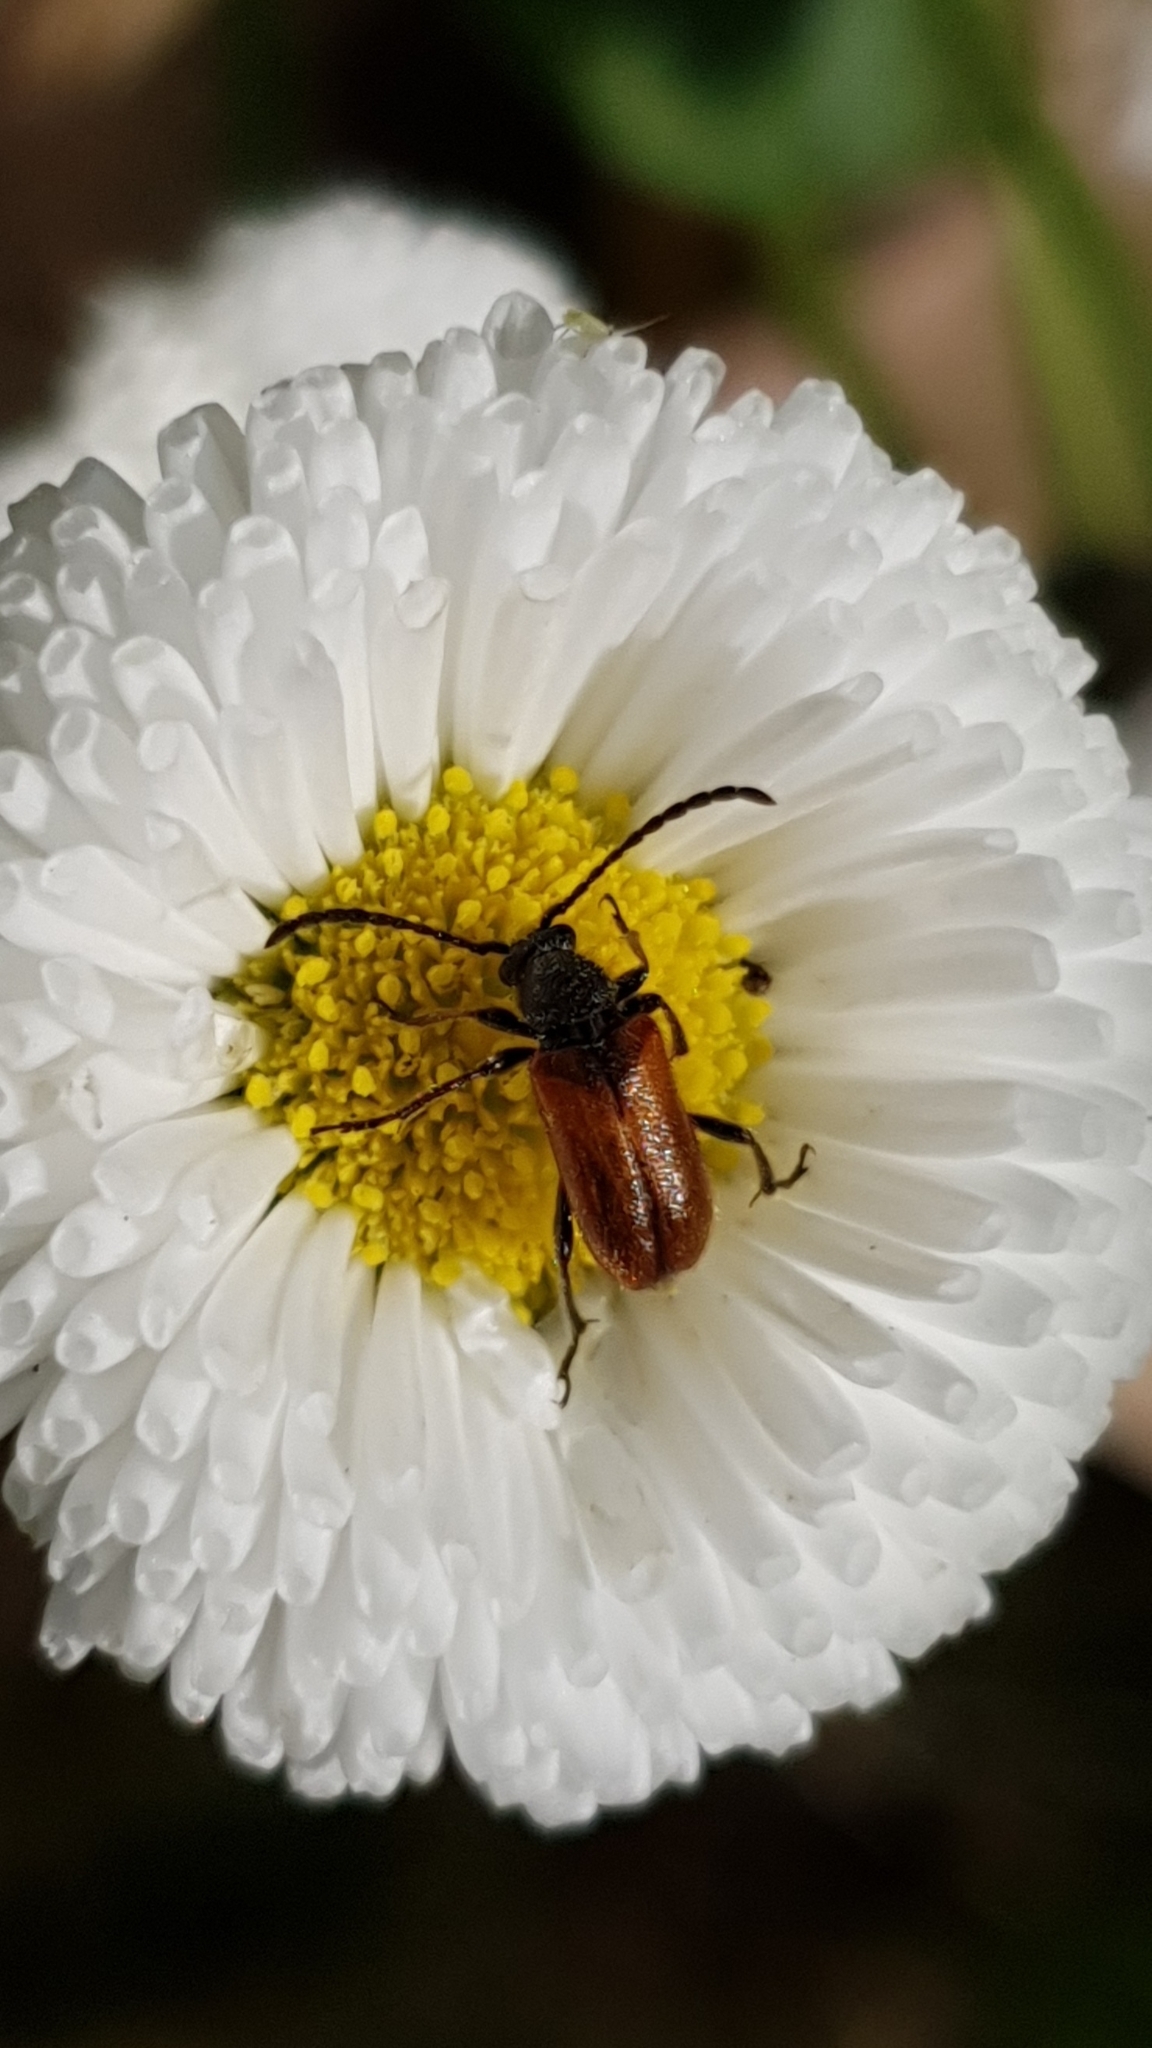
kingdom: Animalia
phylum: Arthropoda
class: Insecta
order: Coleoptera
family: Cerambycidae
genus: Pseudovadonia
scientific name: Pseudovadonia livida
